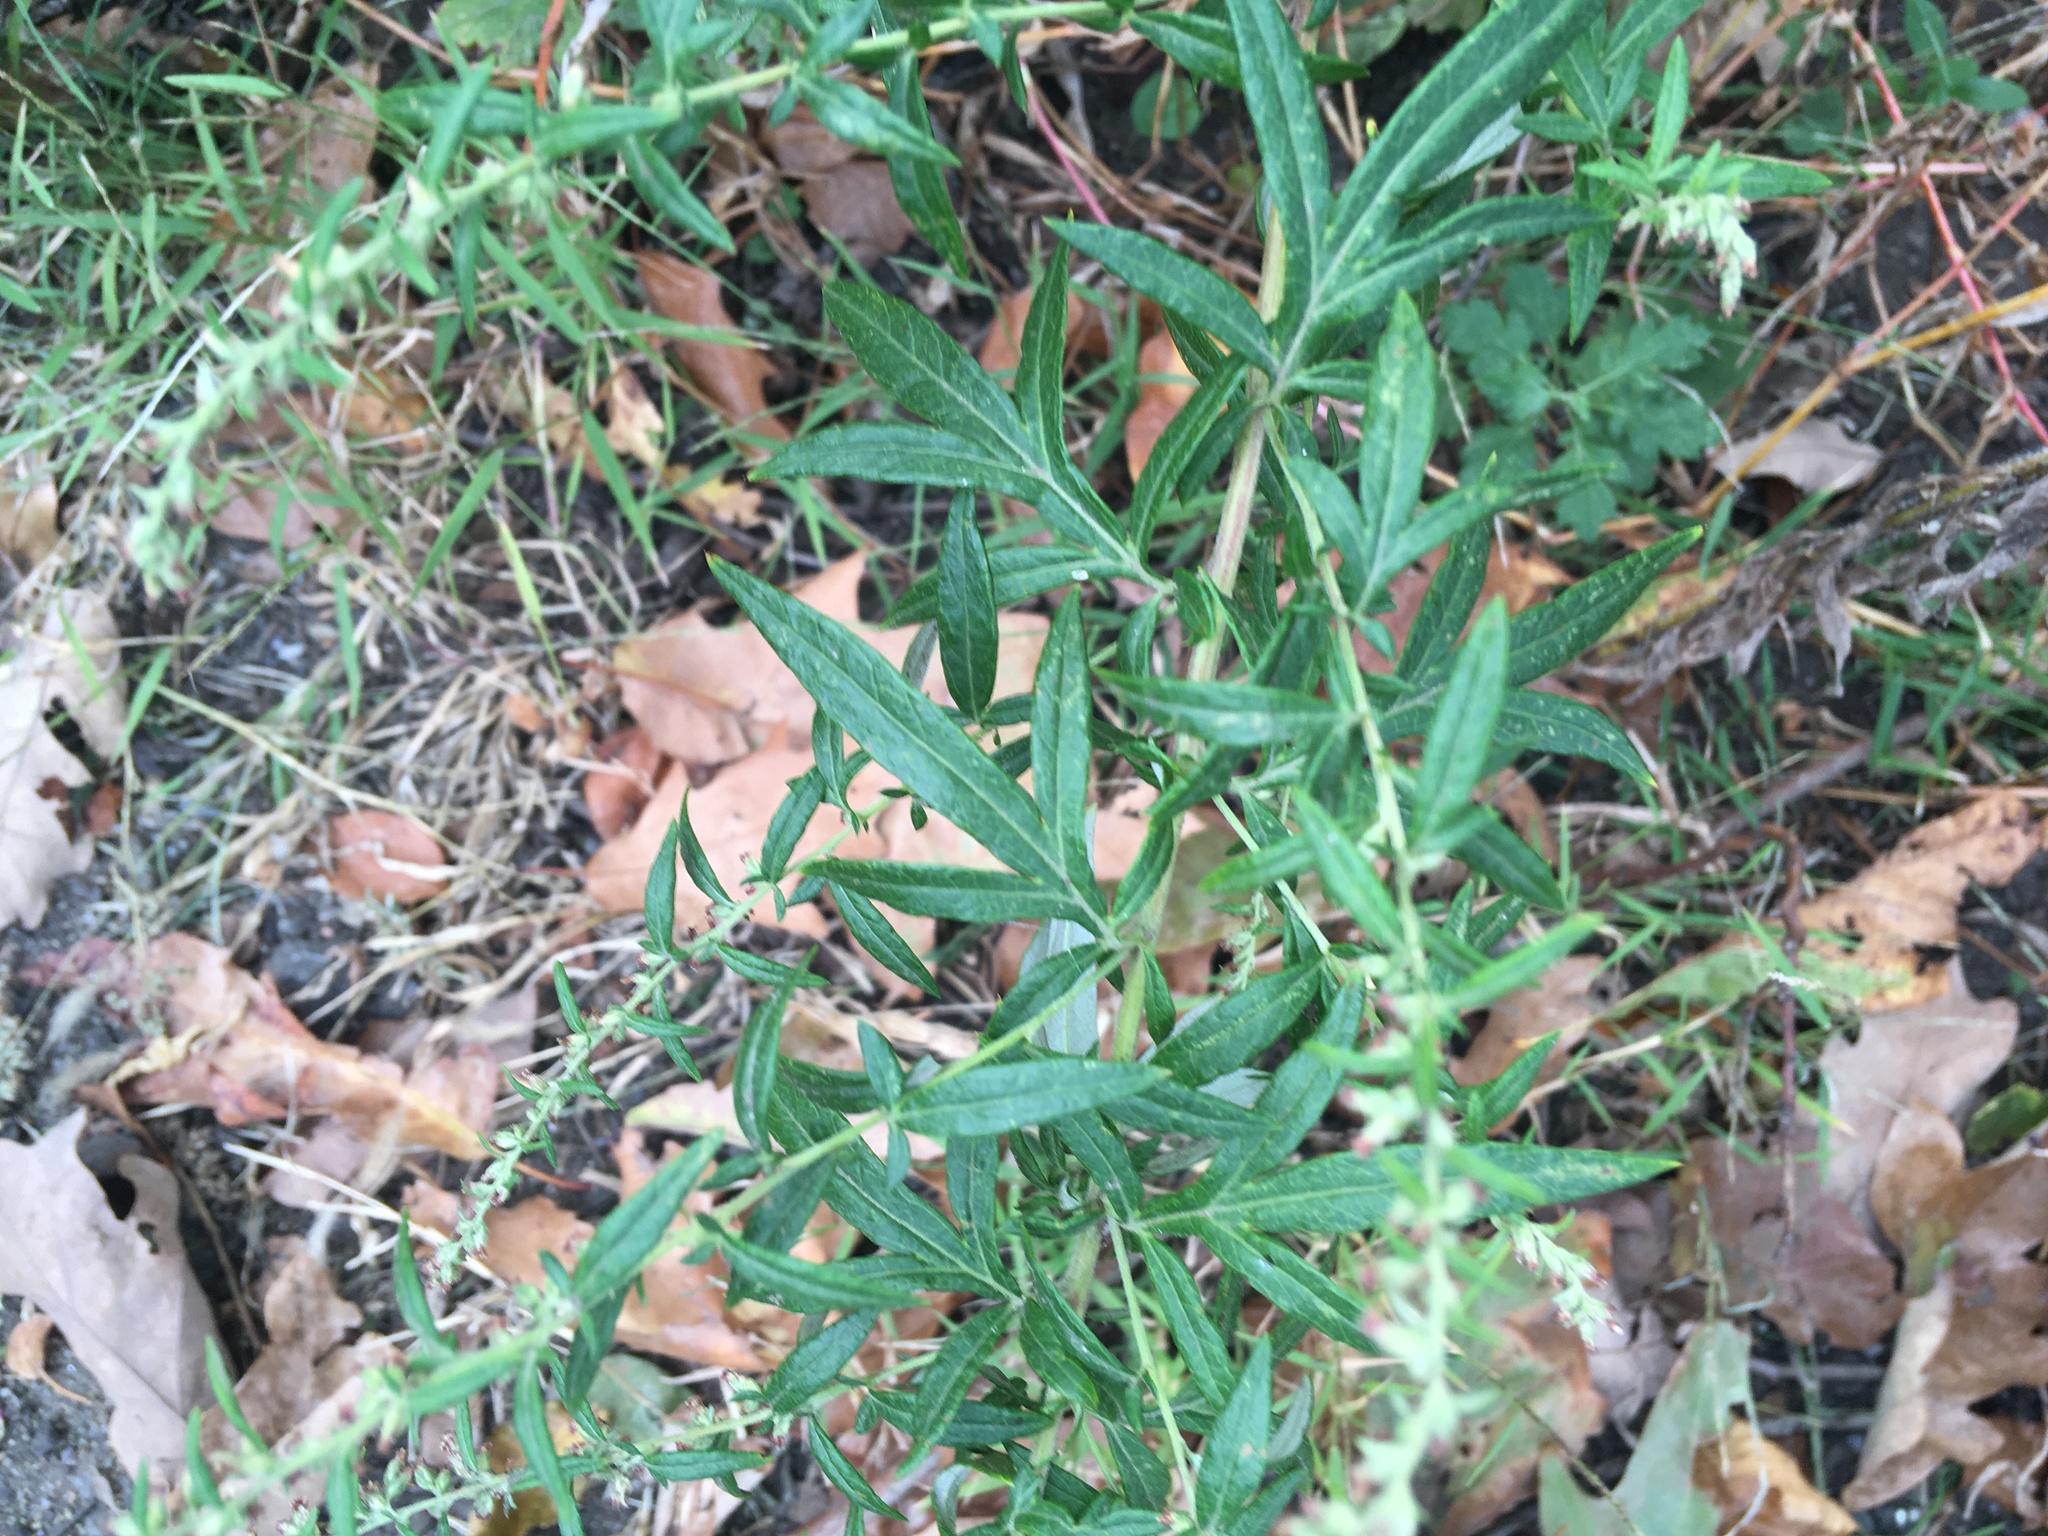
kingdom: Plantae
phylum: Tracheophyta
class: Magnoliopsida
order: Asterales
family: Asteraceae
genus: Artemisia
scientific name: Artemisia vulgaris
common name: Mugwort
